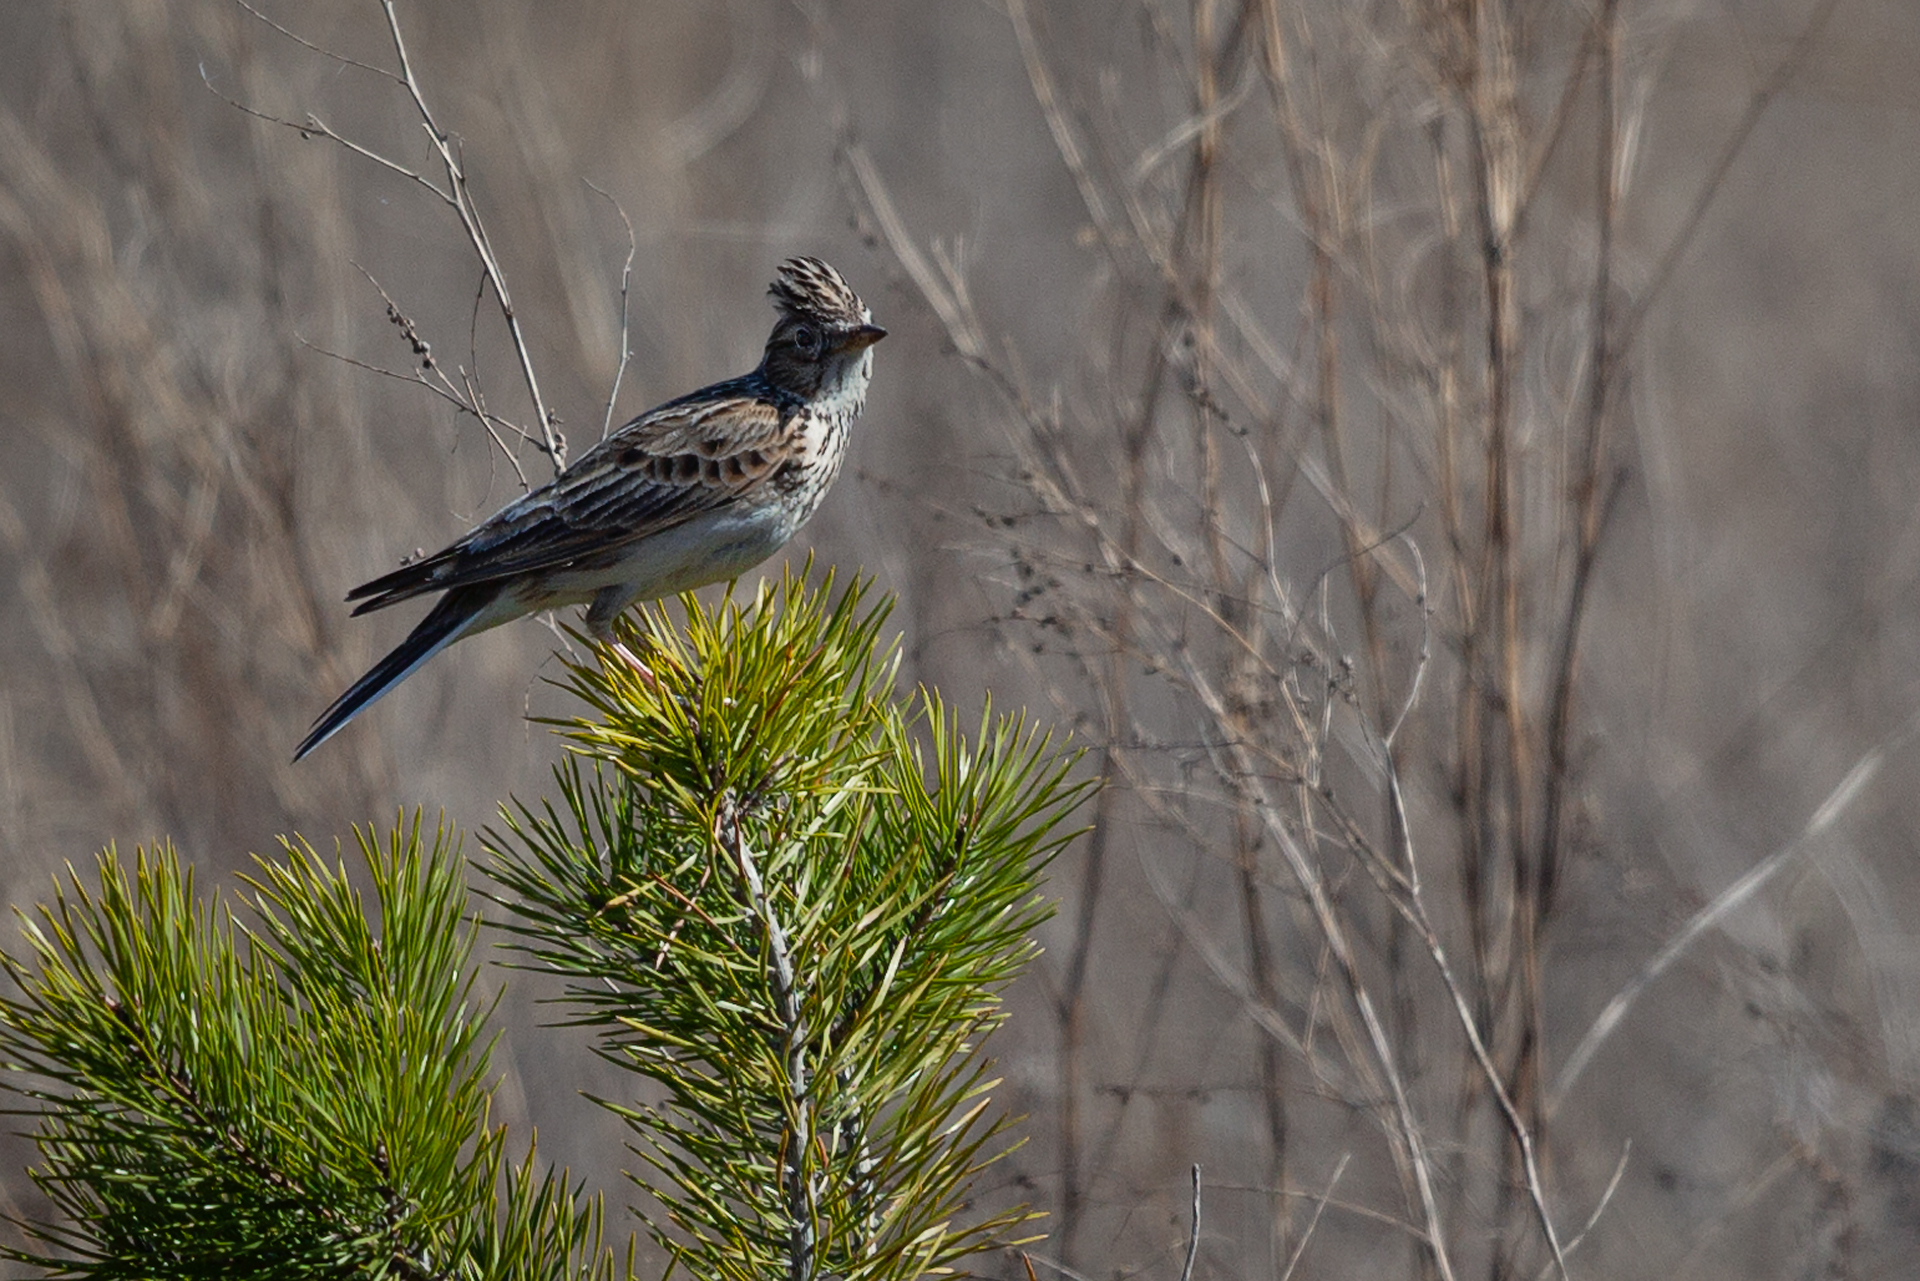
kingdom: Animalia
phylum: Chordata
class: Aves
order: Passeriformes
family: Alaudidae
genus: Alauda
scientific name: Alauda arvensis
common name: Eurasian skylark
